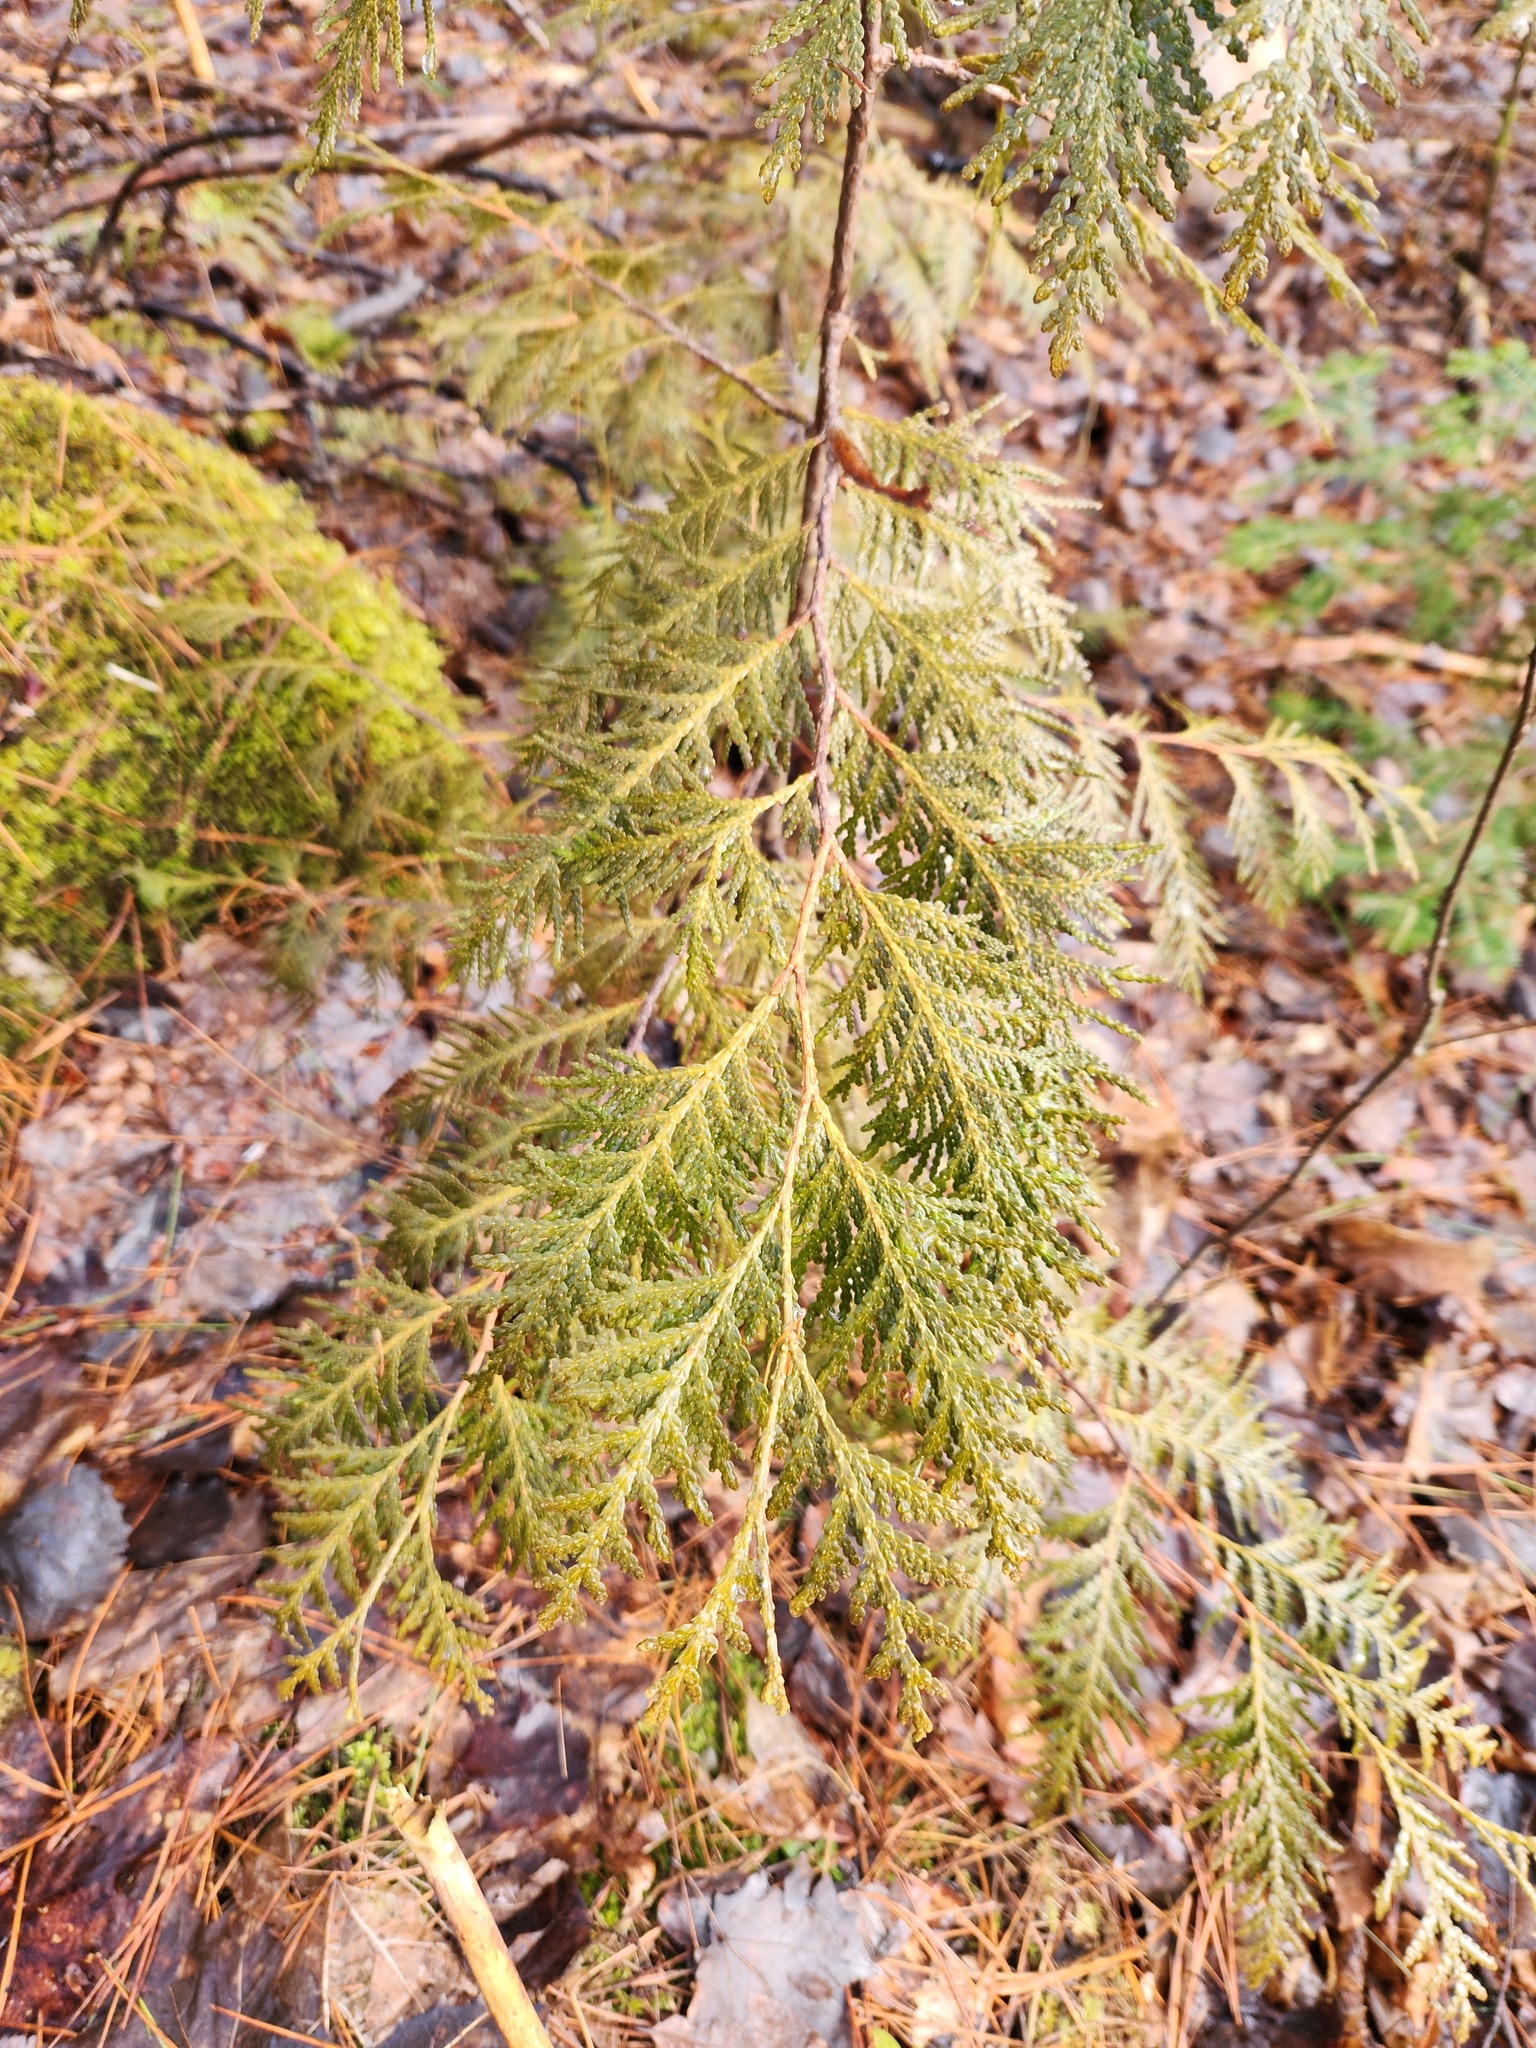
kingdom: Plantae
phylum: Tracheophyta
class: Pinopsida
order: Pinales
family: Cupressaceae
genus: Thuja
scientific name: Thuja occidentalis
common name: Northern white-cedar
